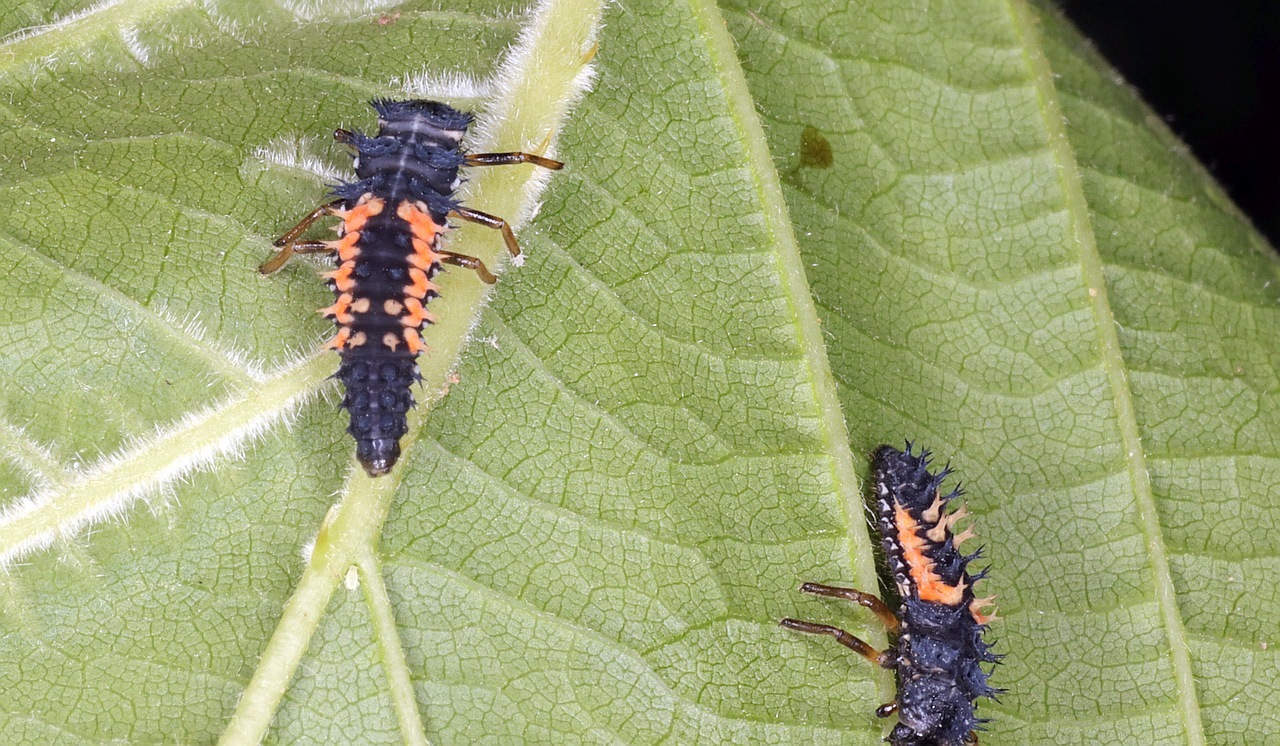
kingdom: Animalia
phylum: Arthropoda
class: Insecta
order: Coleoptera
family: Coccinellidae
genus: Harmonia
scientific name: Harmonia axyridis
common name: Harlequin ladybird
